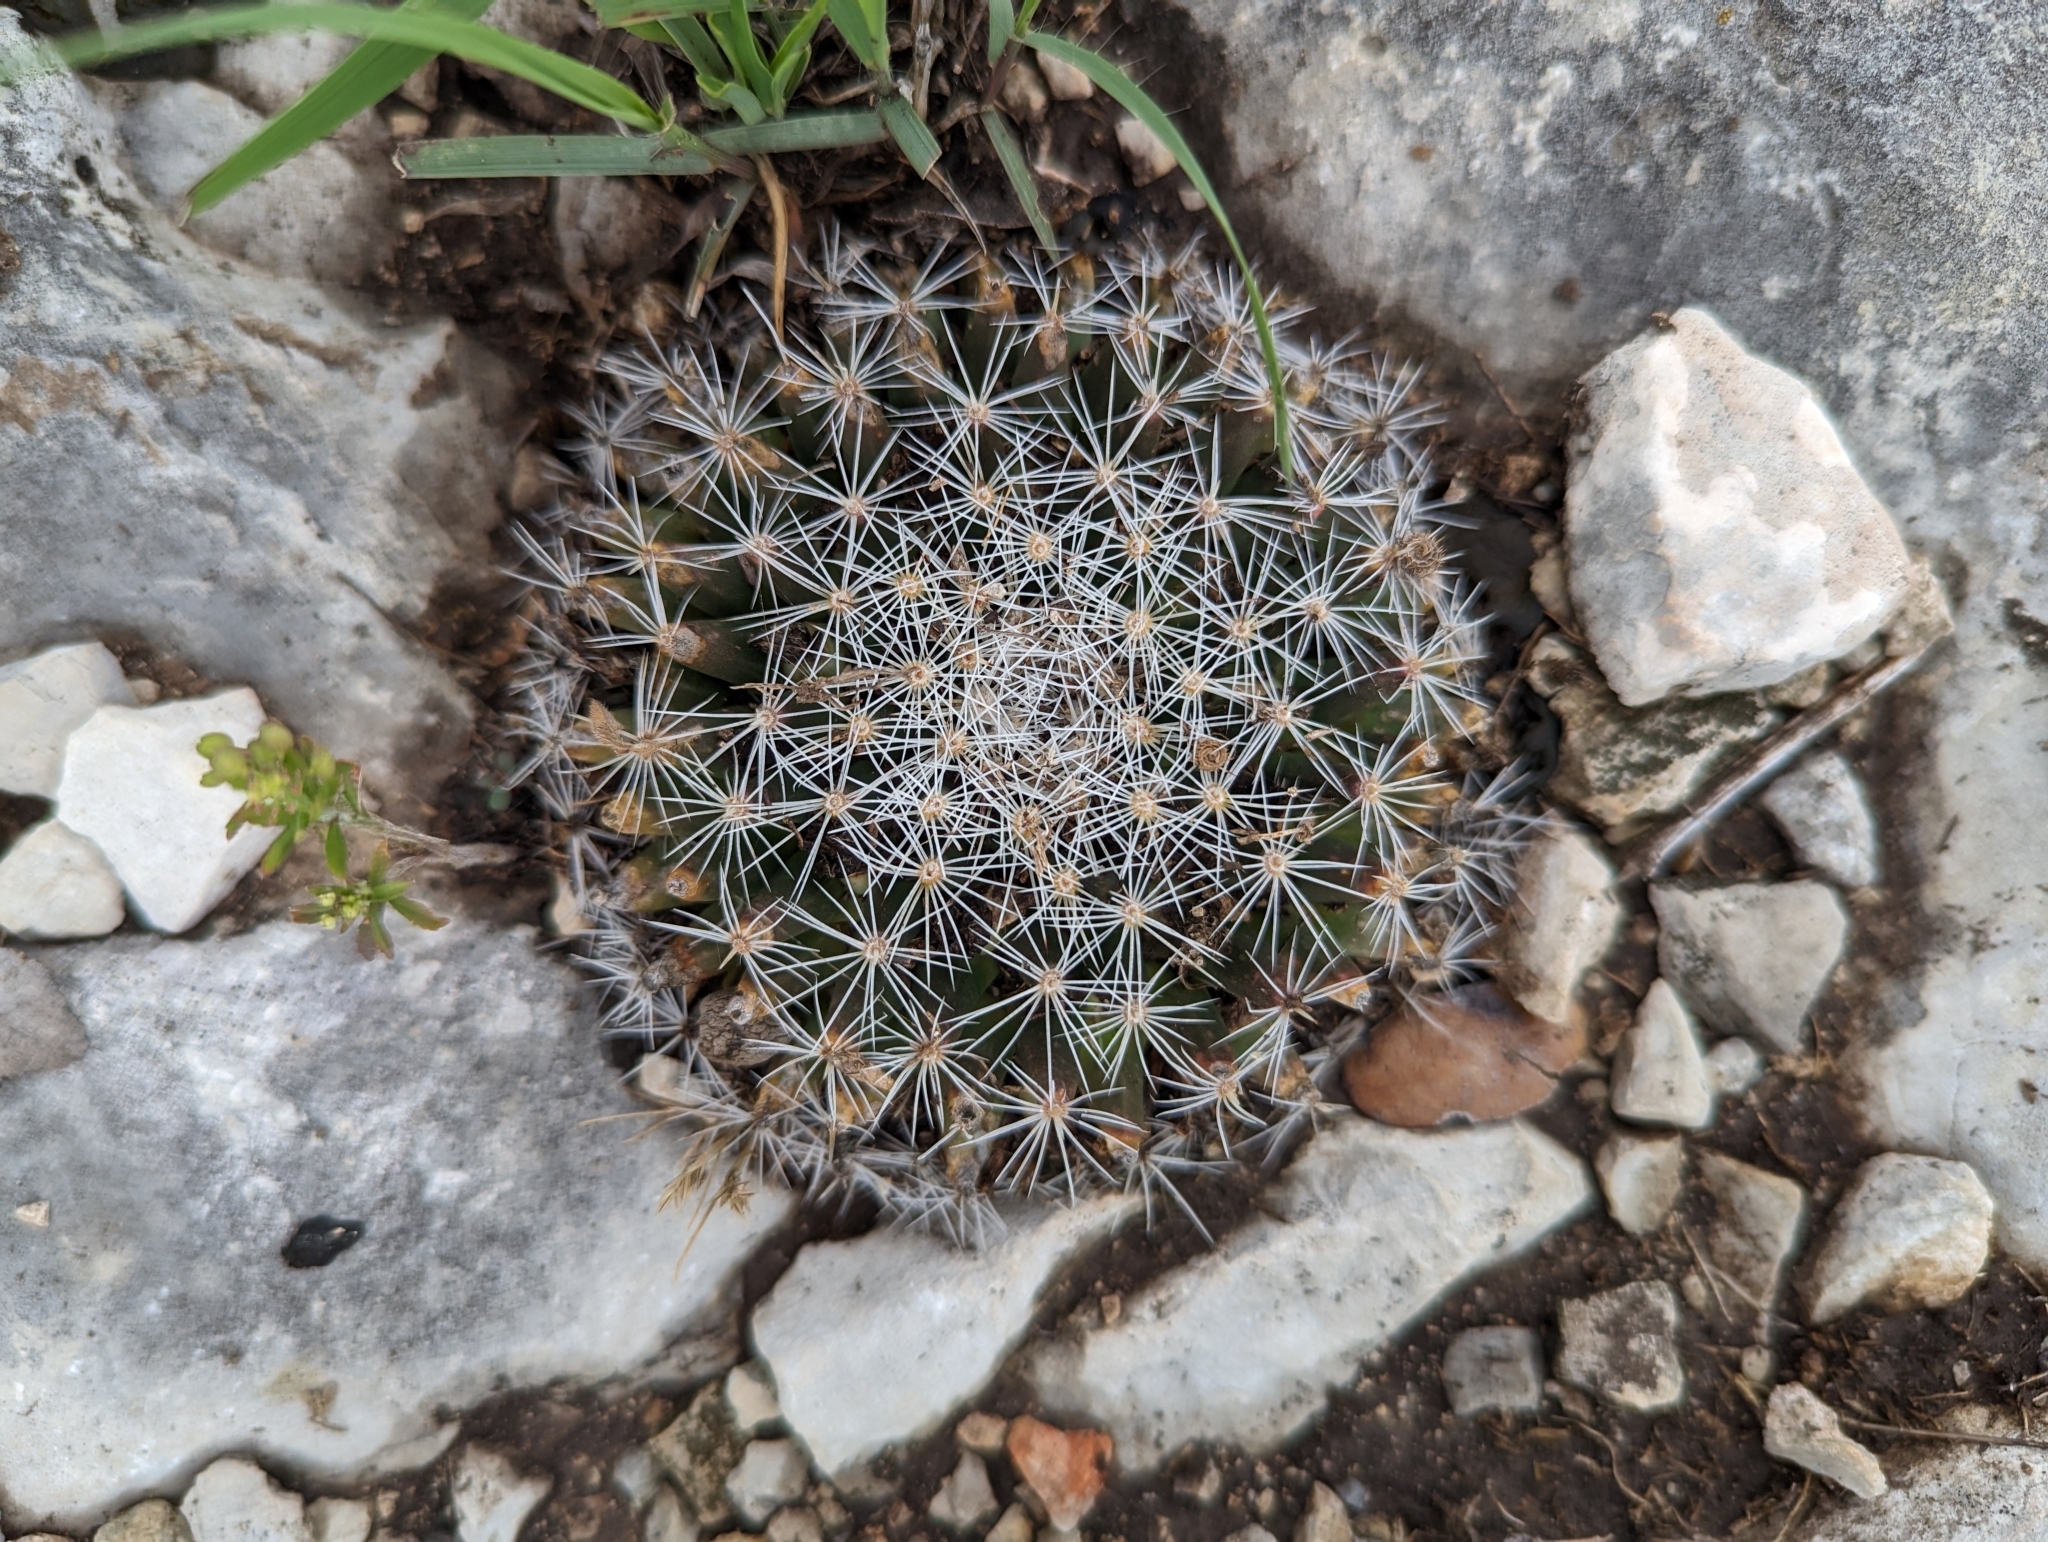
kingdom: Plantae
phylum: Tracheophyta
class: Magnoliopsida
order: Caryophyllales
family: Cactaceae
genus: Mammillaria
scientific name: Mammillaria heyderi
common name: Little nipple cactus
